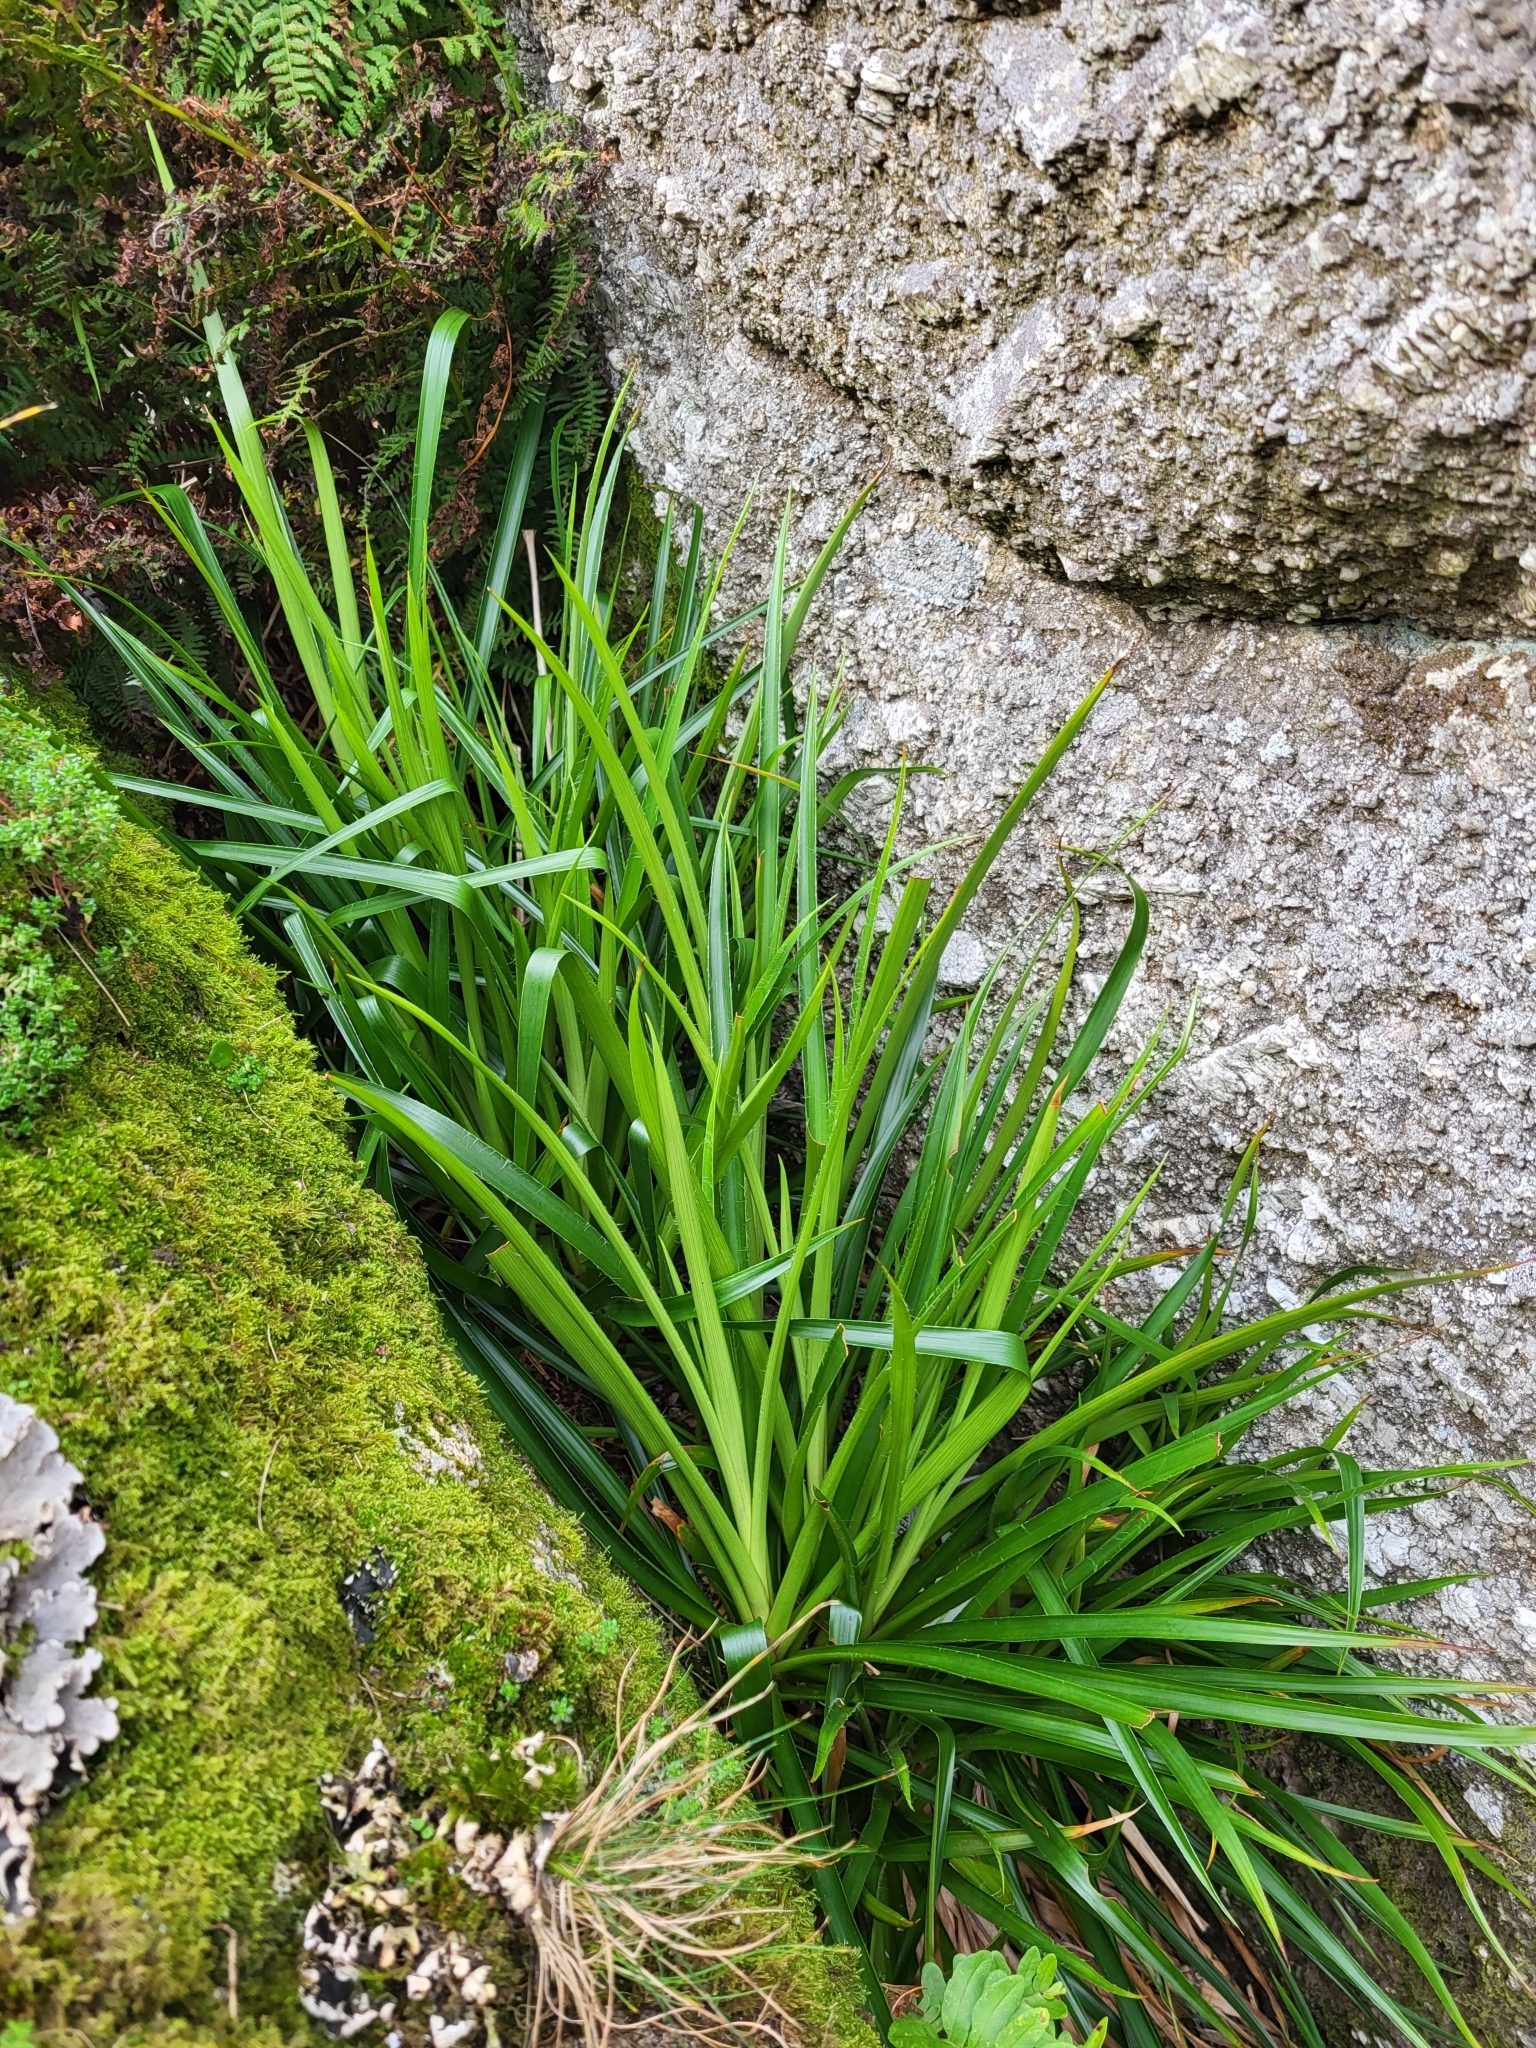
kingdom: Plantae
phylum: Tracheophyta
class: Liliopsida
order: Poales
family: Juncaceae
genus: Luzula
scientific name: Luzula sylvatica
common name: Great wood-rush
